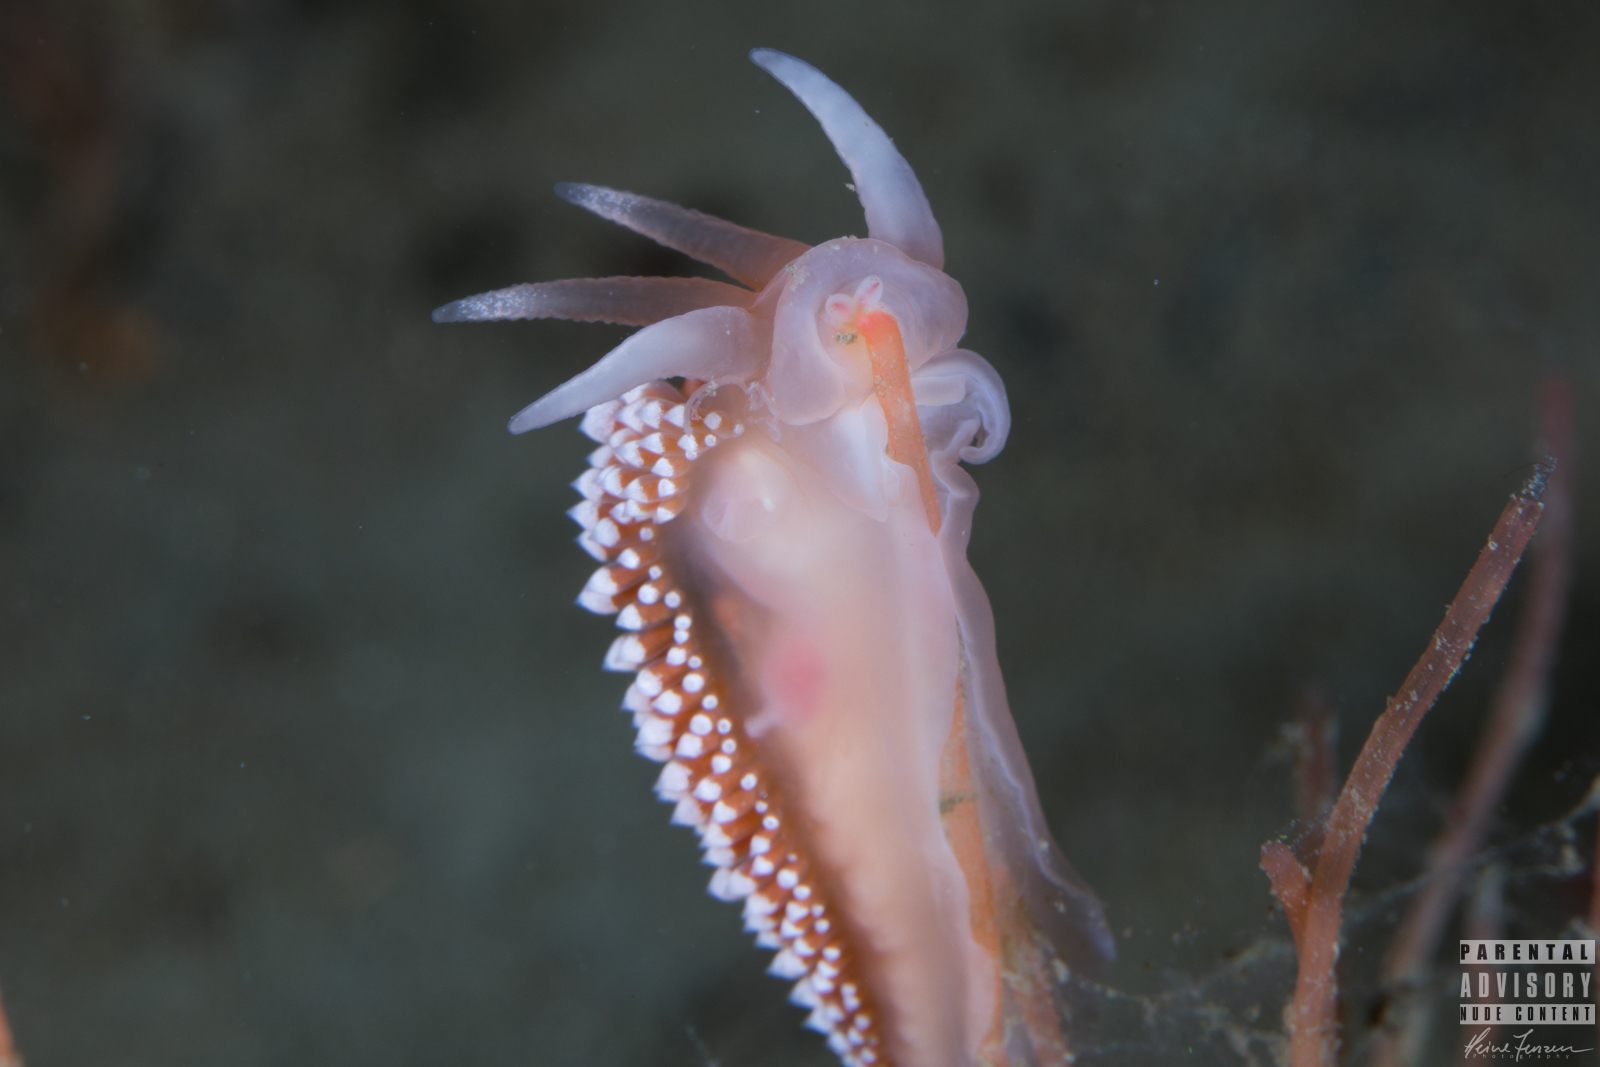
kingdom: Animalia
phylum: Mollusca
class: Gastropoda
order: Nudibranchia
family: Coryphellidae
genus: Coryphella
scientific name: Coryphella verrucosa
